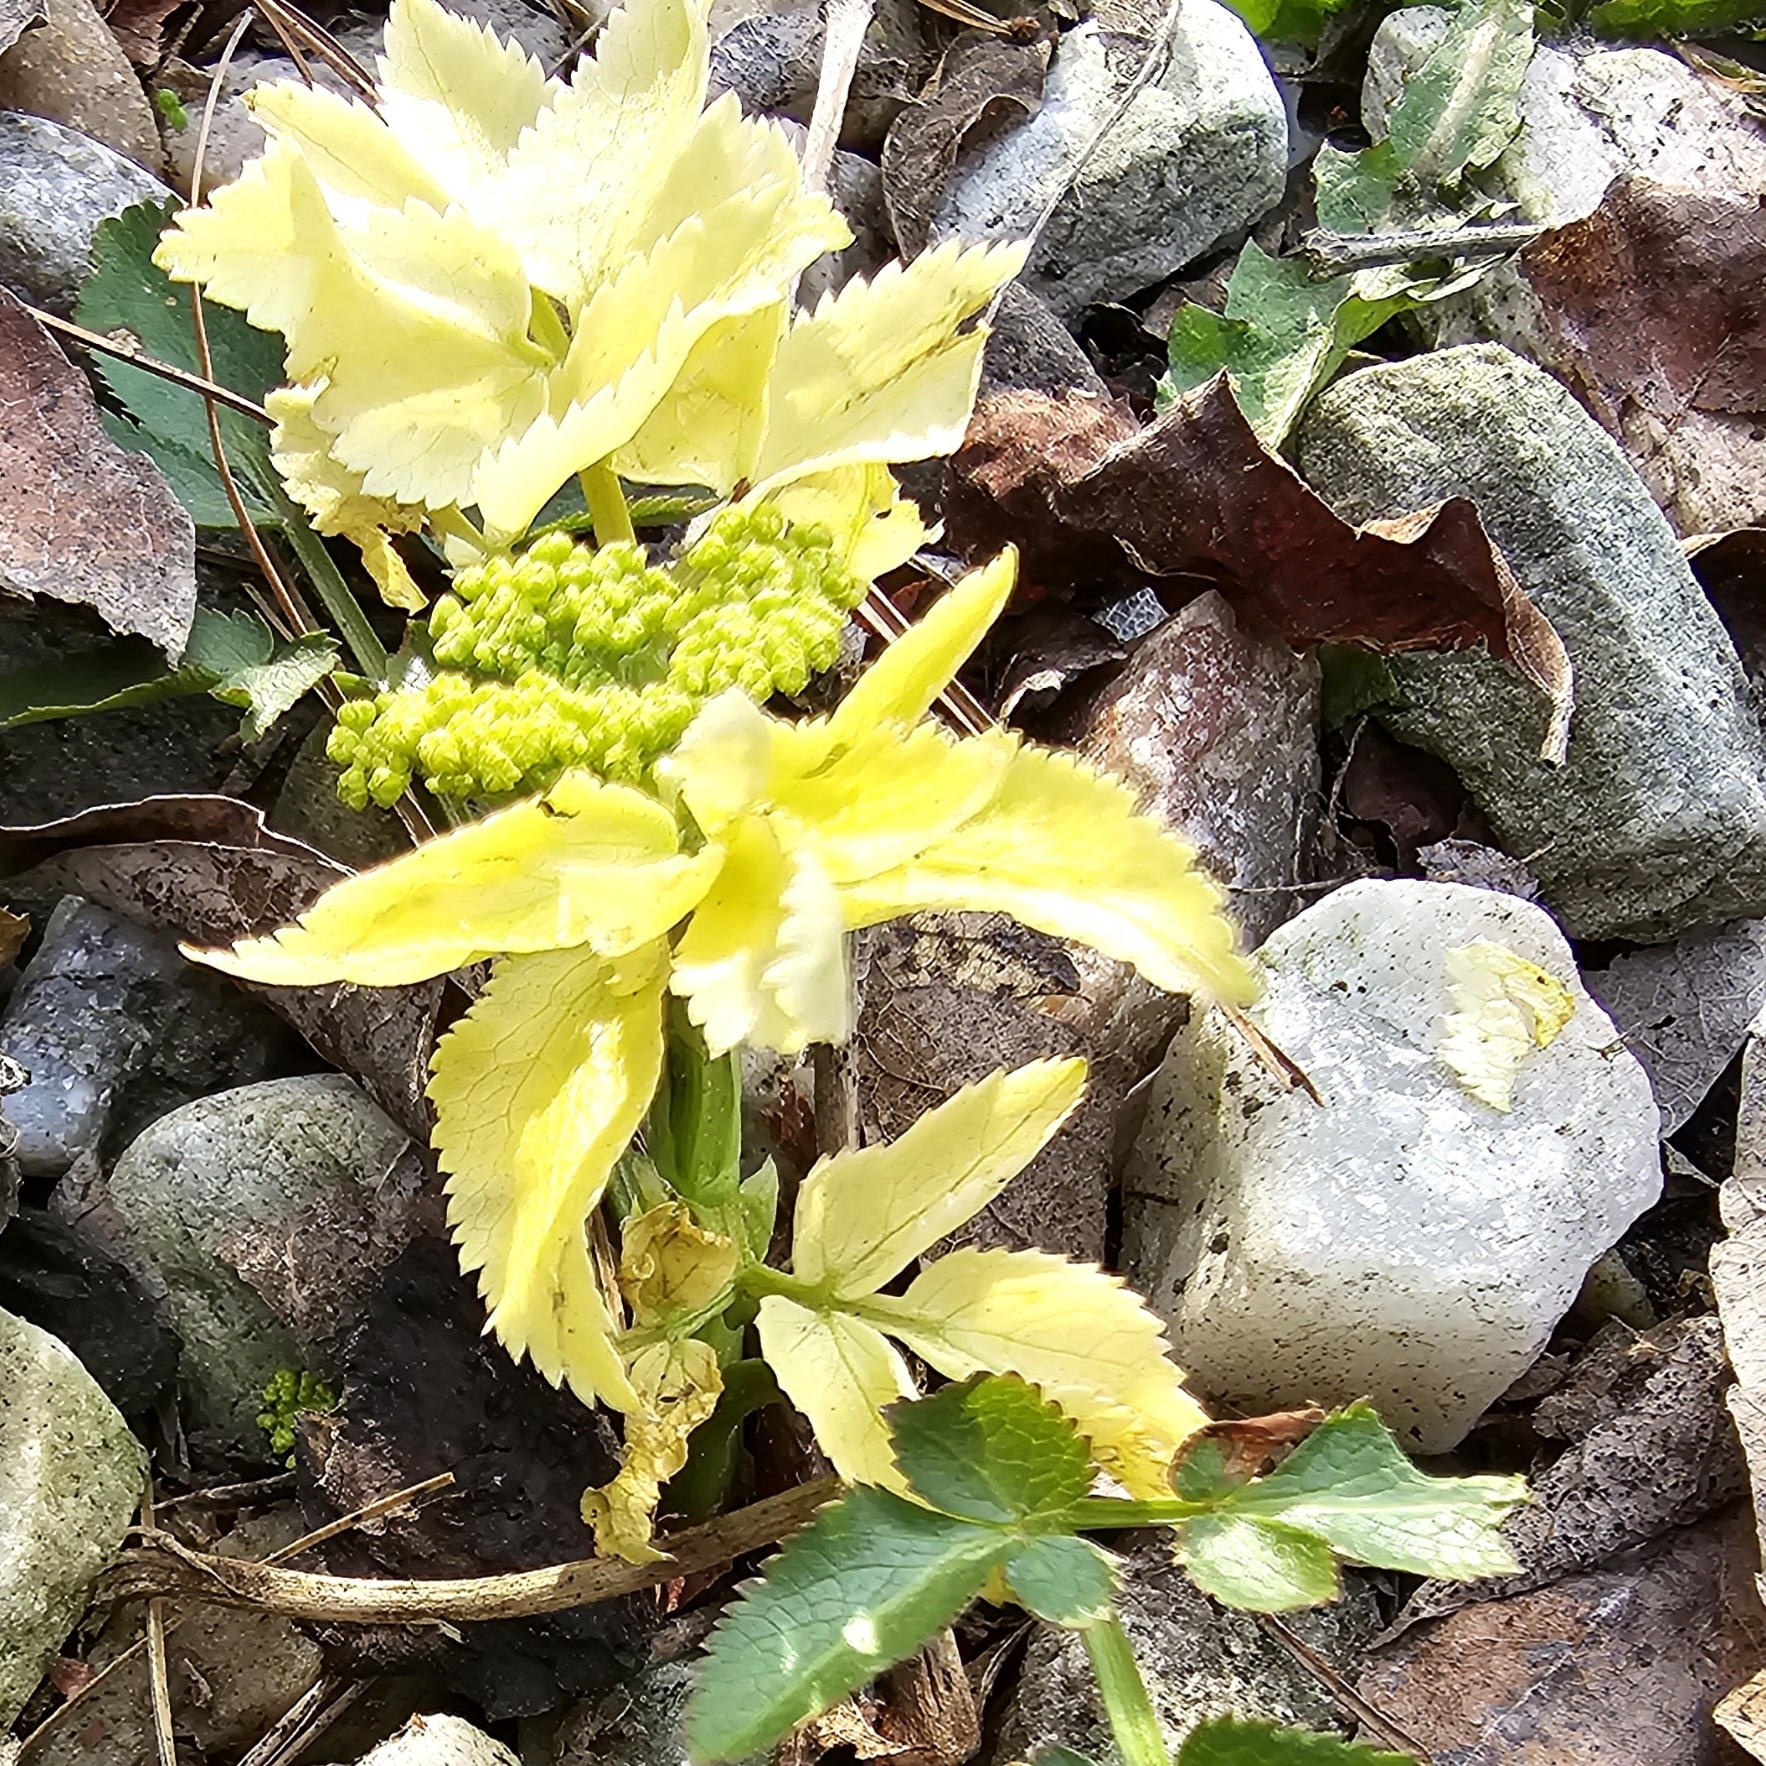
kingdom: Plantae
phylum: Tracheophyta
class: Magnoliopsida
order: Apiales
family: Apiaceae
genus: Zizia
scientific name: Zizia aurea
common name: Golden alexanders
